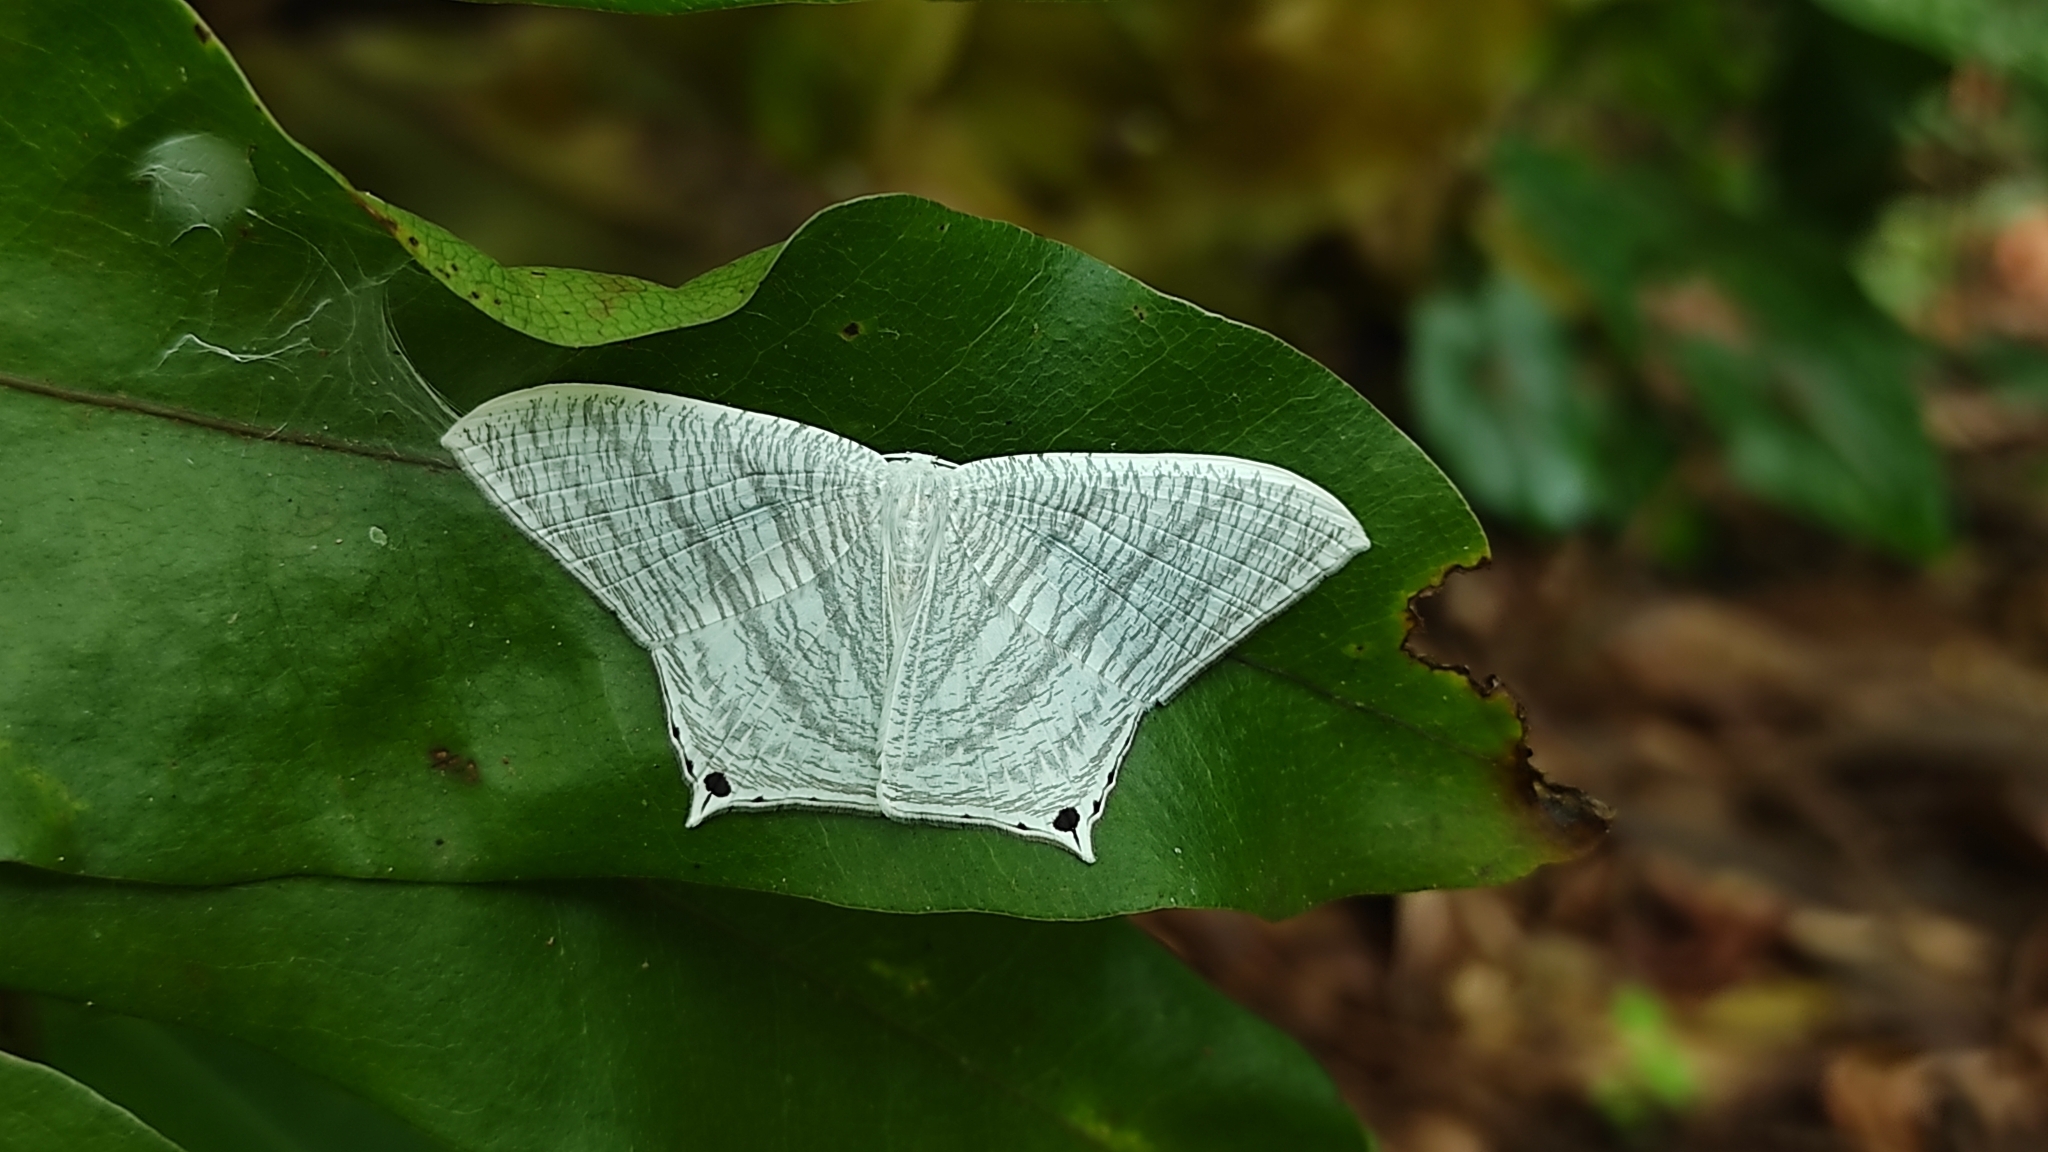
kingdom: Animalia
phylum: Arthropoda
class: Insecta
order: Lepidoptera
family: Uraniidae
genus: Micronia
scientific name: Micronia aculeata
